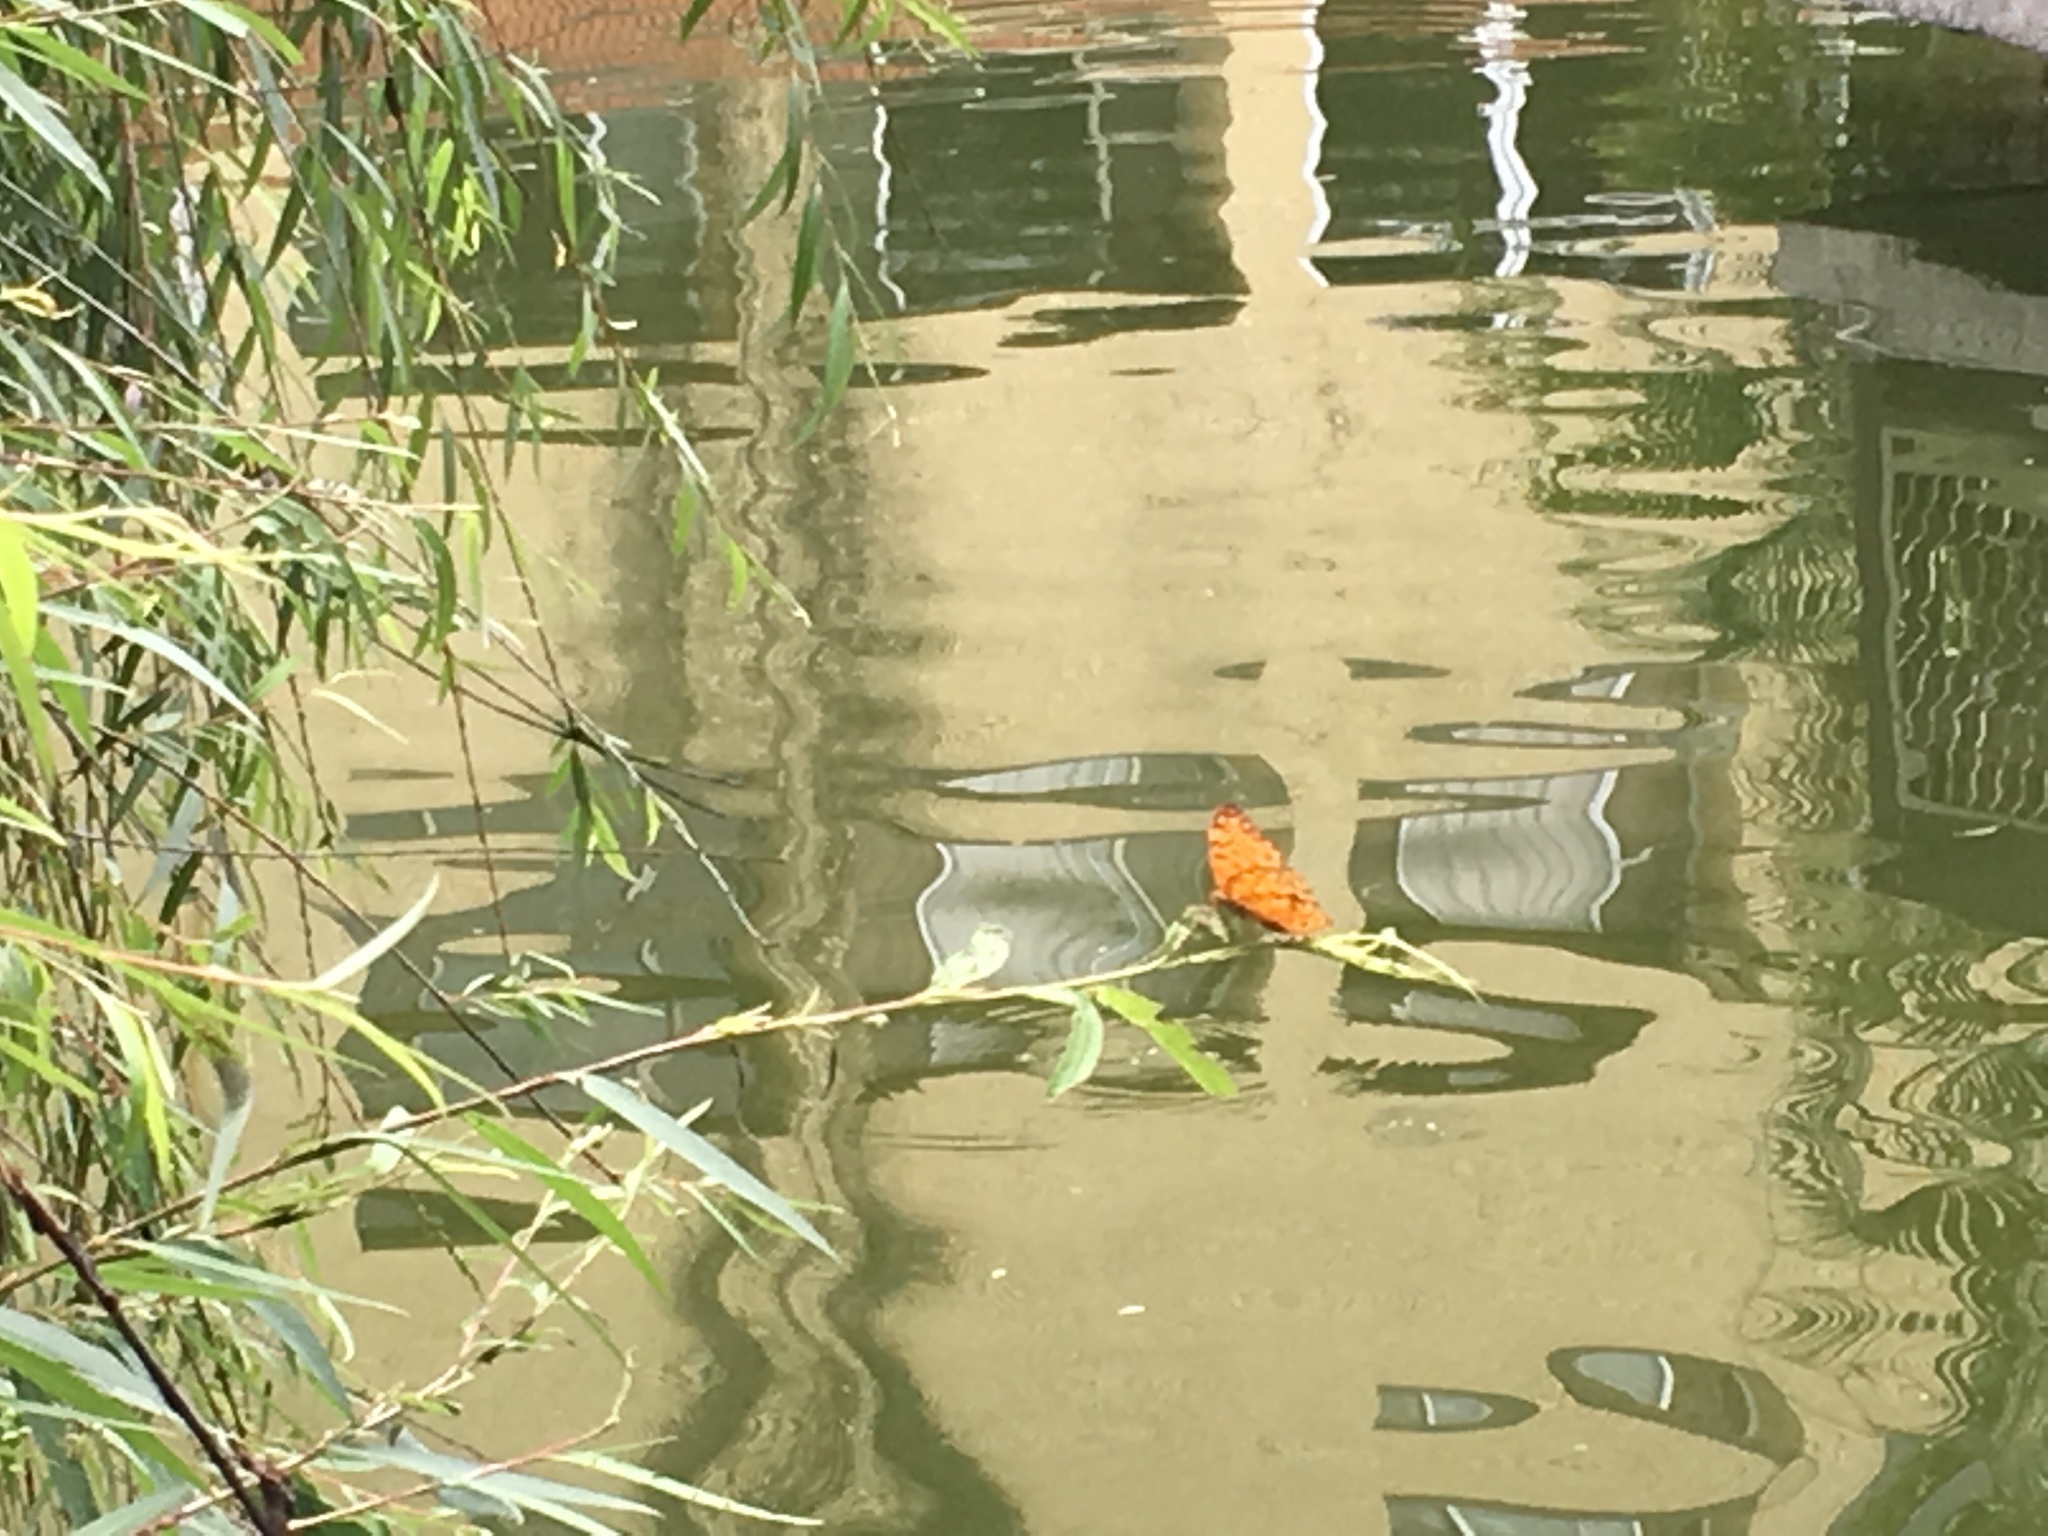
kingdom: Animalia
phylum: Arthropoda
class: Insecta
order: Lepidoptera
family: Nymphalidae
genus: Phalanta
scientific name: Phalanta phalantha
